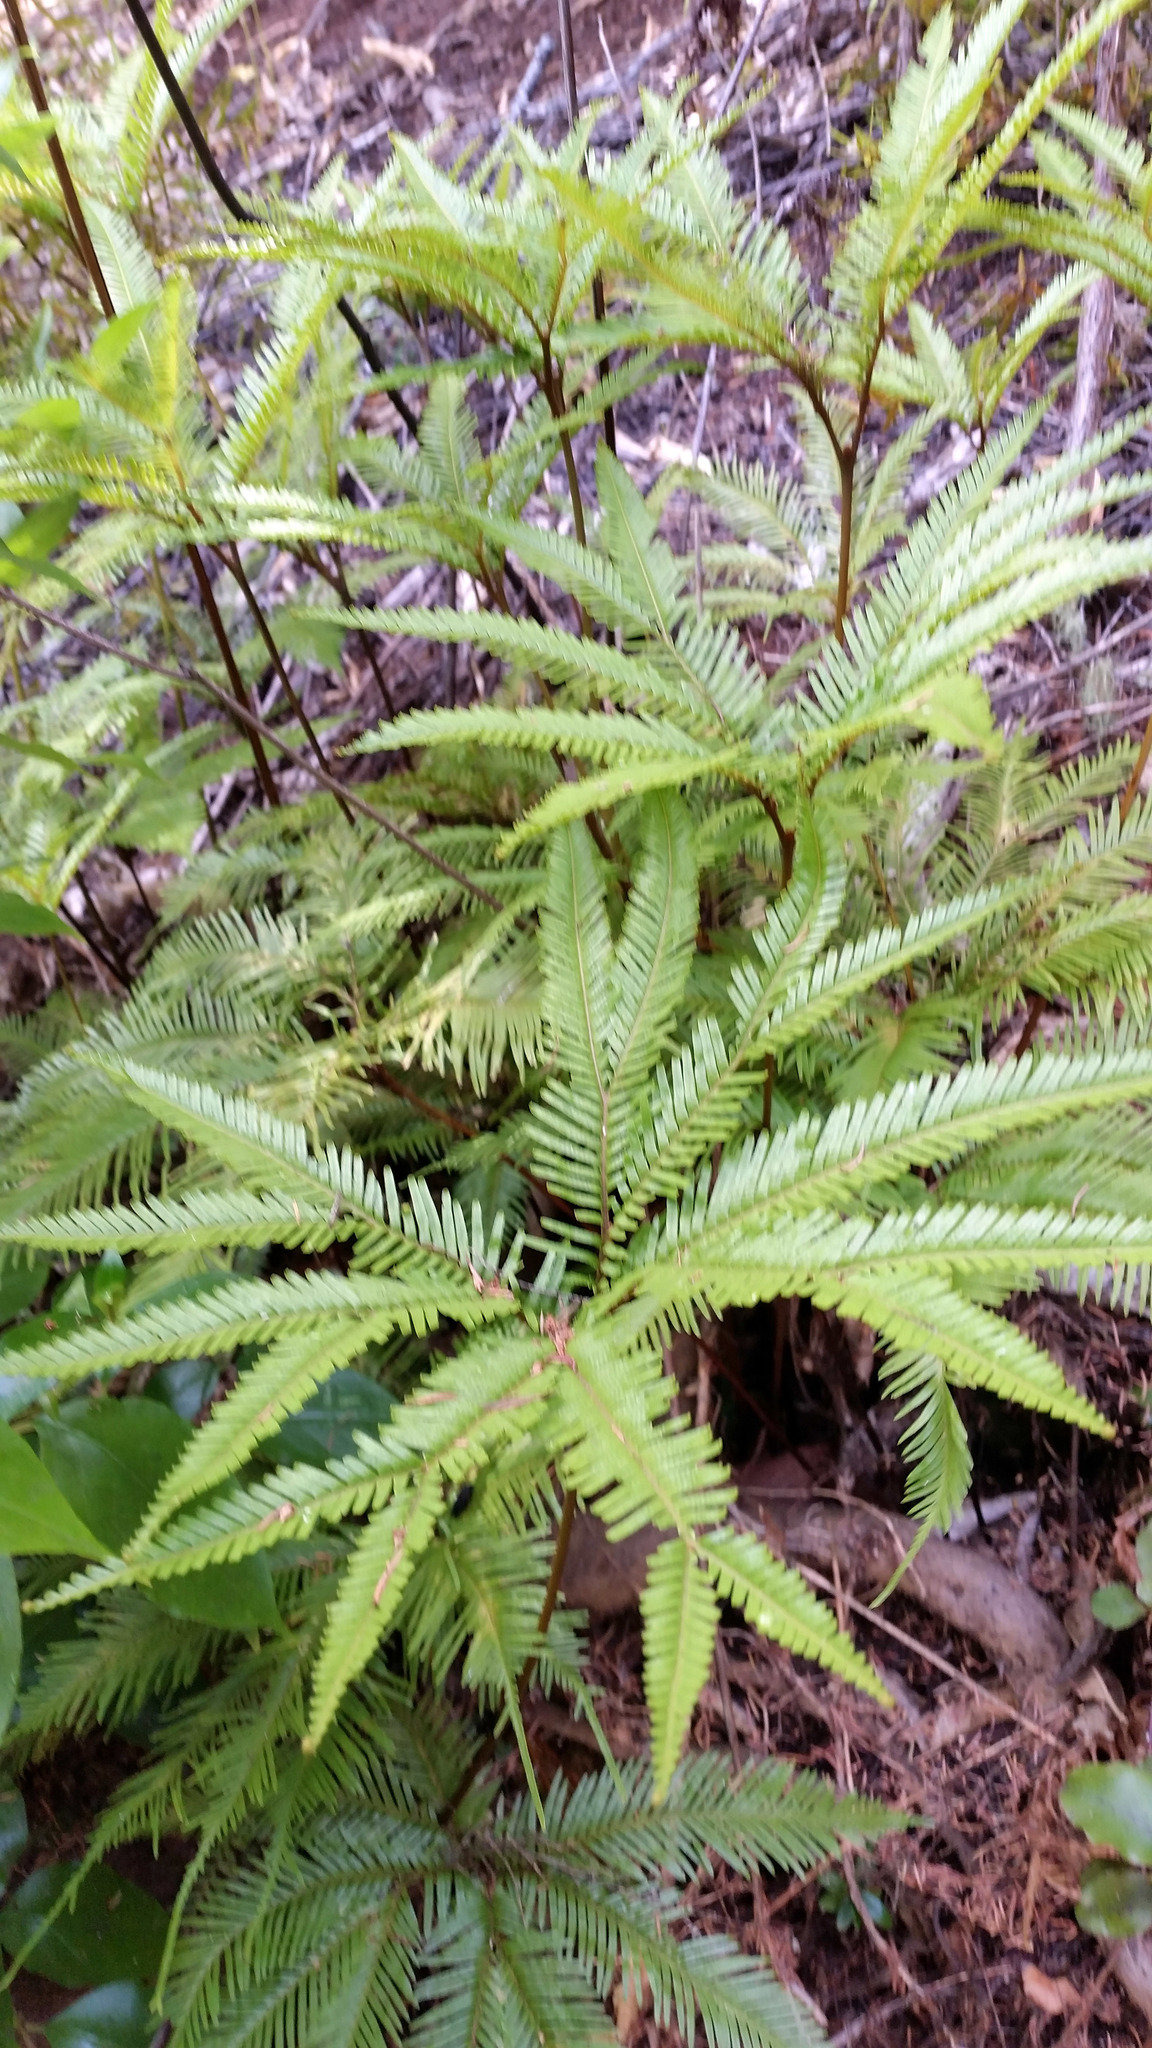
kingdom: Plantae
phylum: Tracheophyta
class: Polypodiopsida
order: Gleicheniales
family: Gleicheniaceae
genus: Sticherus
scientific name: Sticherus flabellatus
